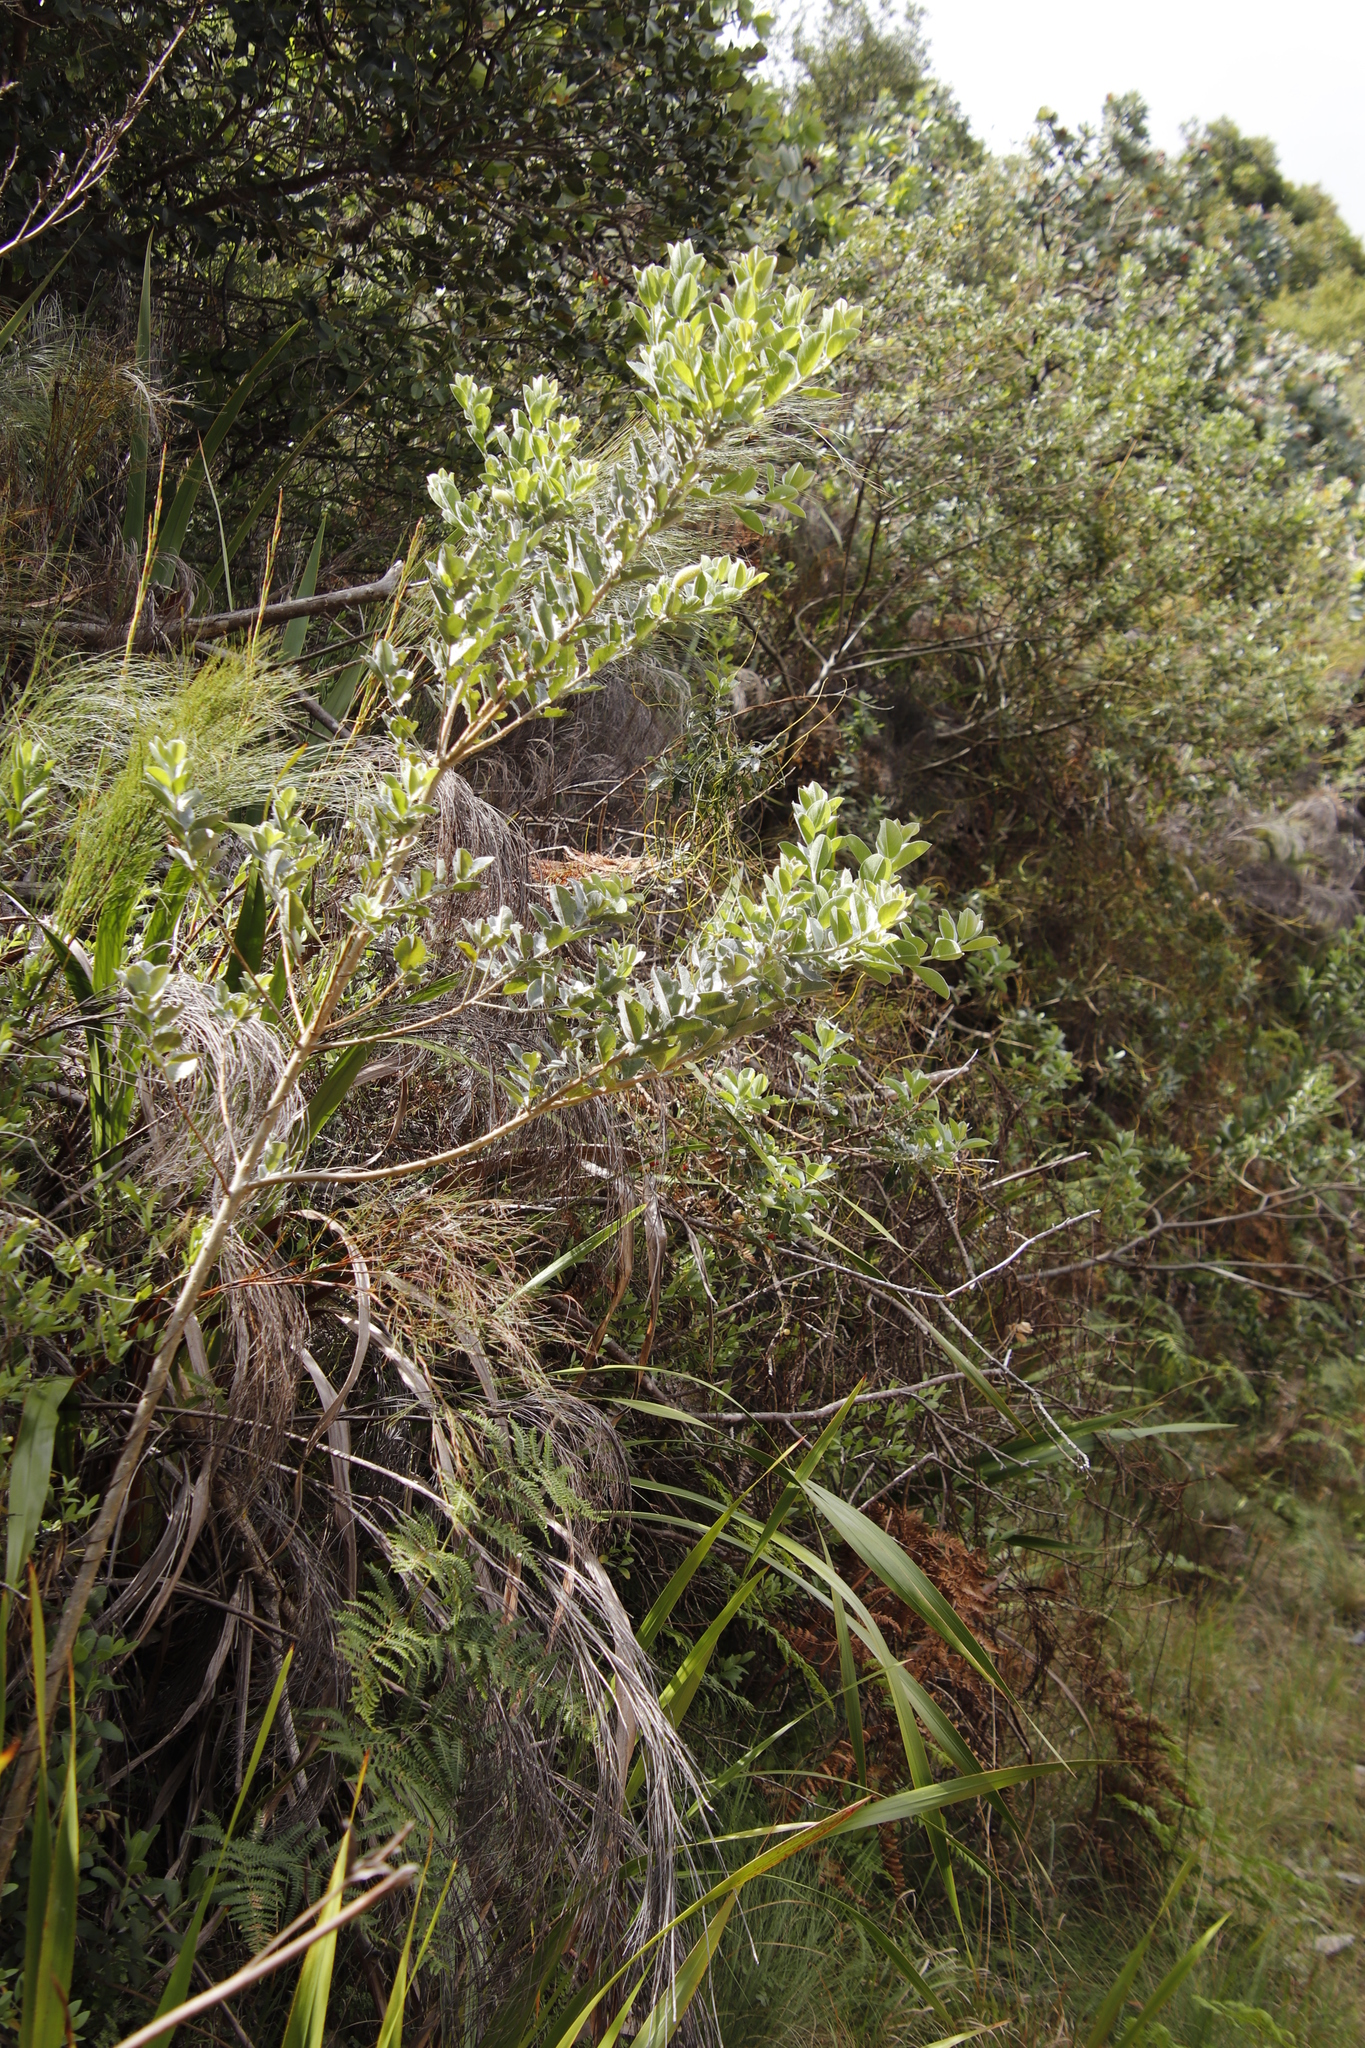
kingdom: Plantae
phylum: Tracheophyta
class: Magnoliopsida
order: Fabales
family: Fabaceae
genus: Podalyria
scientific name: Podalyria calyptrata
